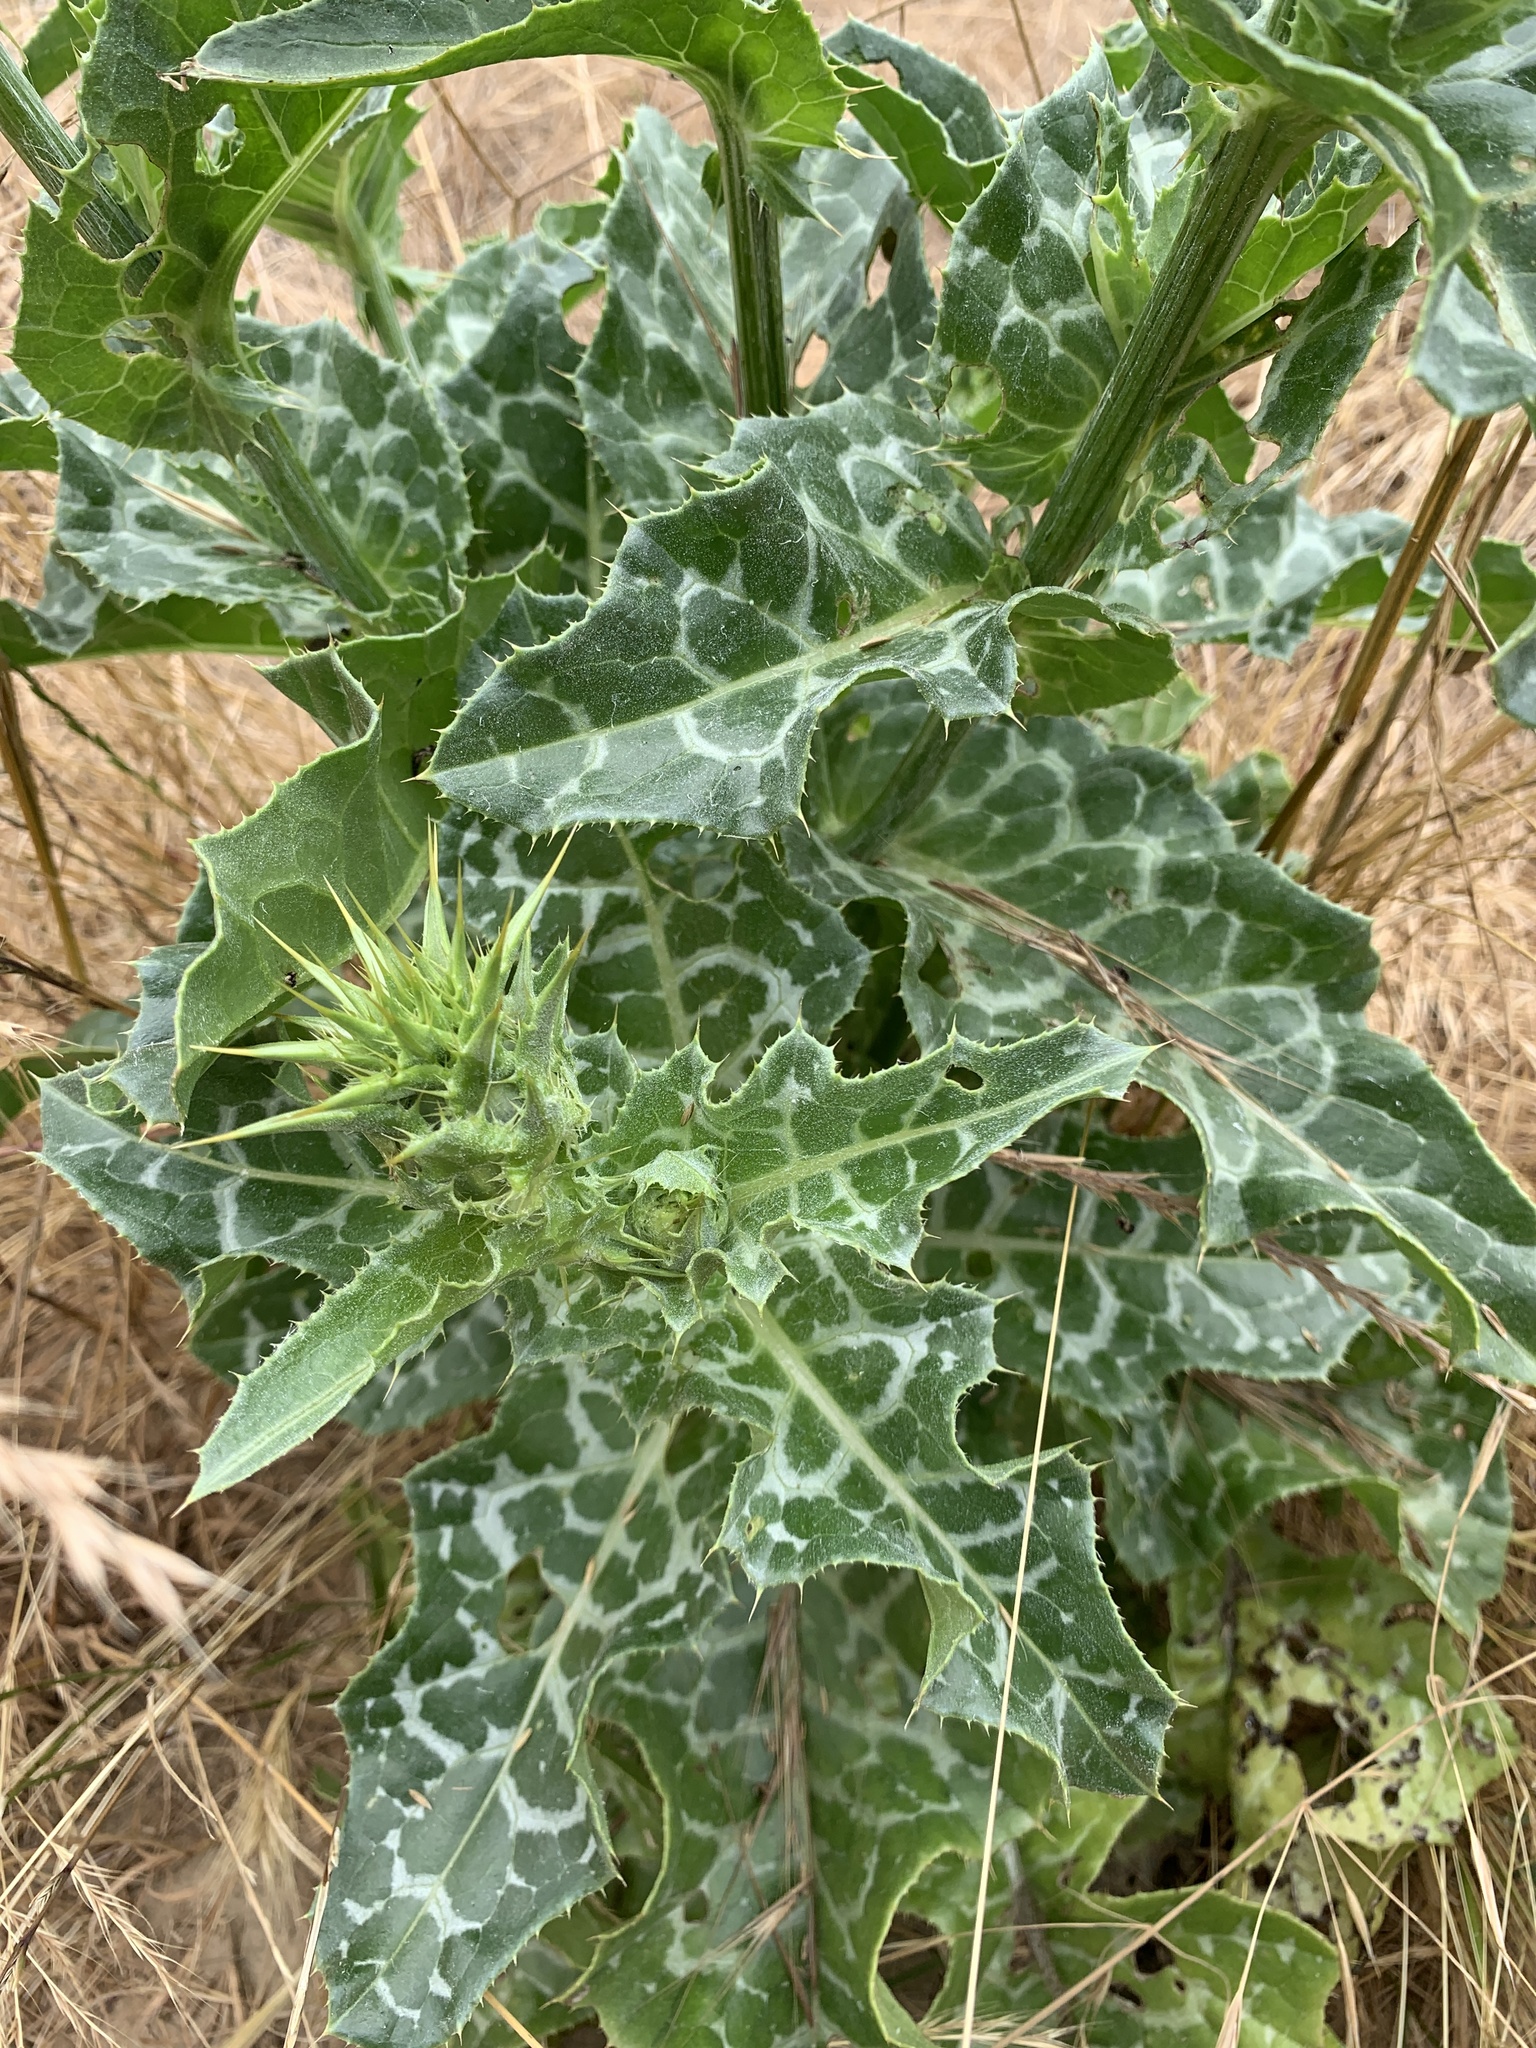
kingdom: Plantae
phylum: Tracheophyta
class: Magnoliopsida
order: Asterales
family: Asteraceae
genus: Silybum
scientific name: Silybum marianum
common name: Milk thistle
